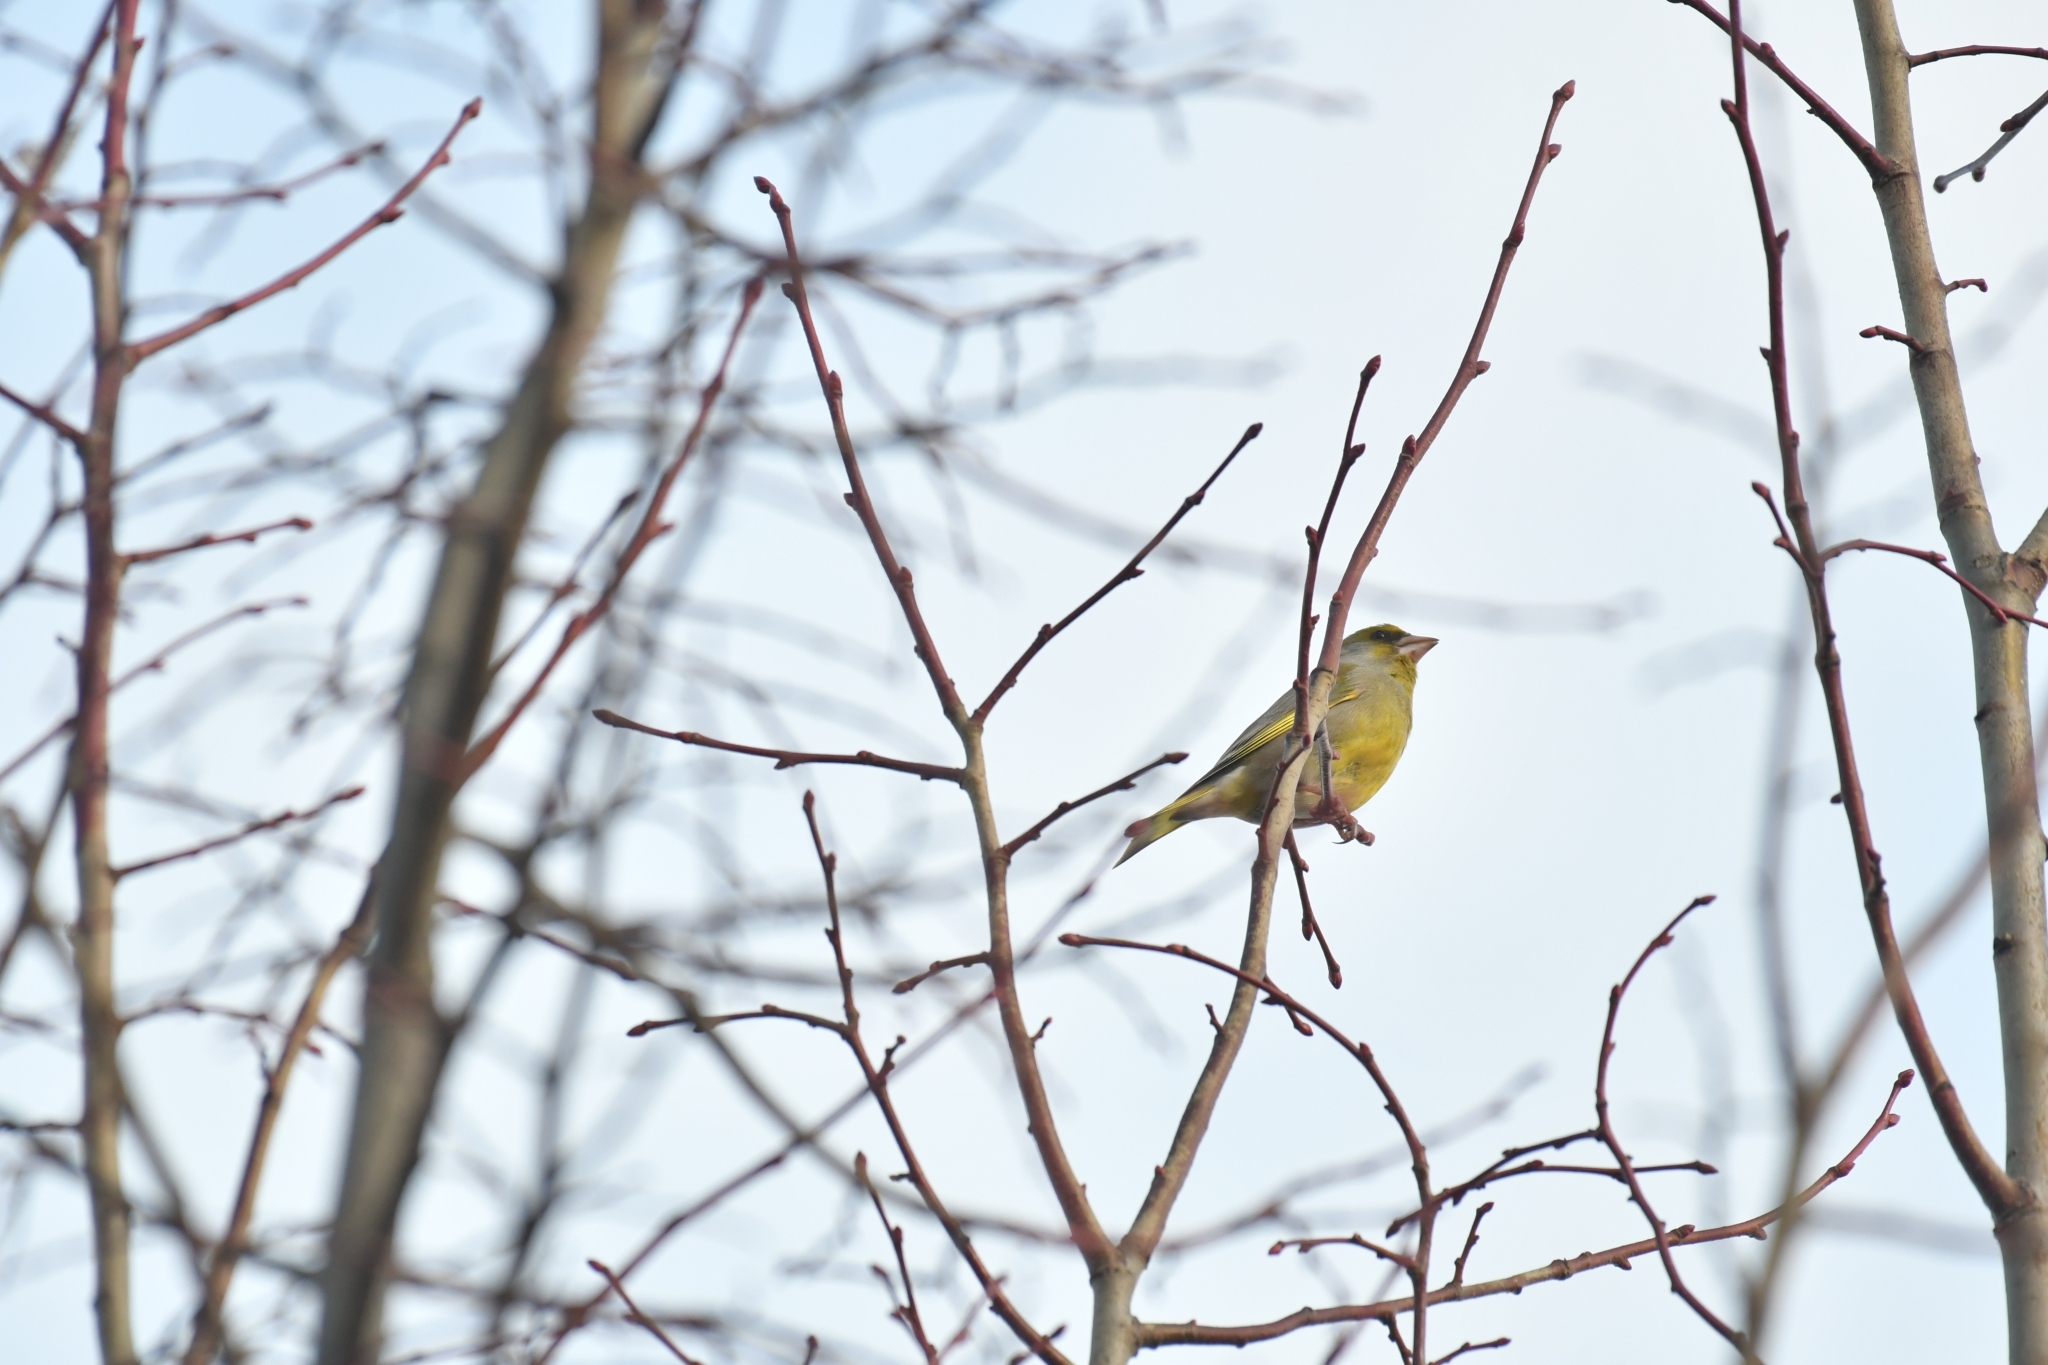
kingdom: Plantae
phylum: Tracheophyta
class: Liliopsida
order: Poales
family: Poaceae
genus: Chloris
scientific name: Chloris chloris
